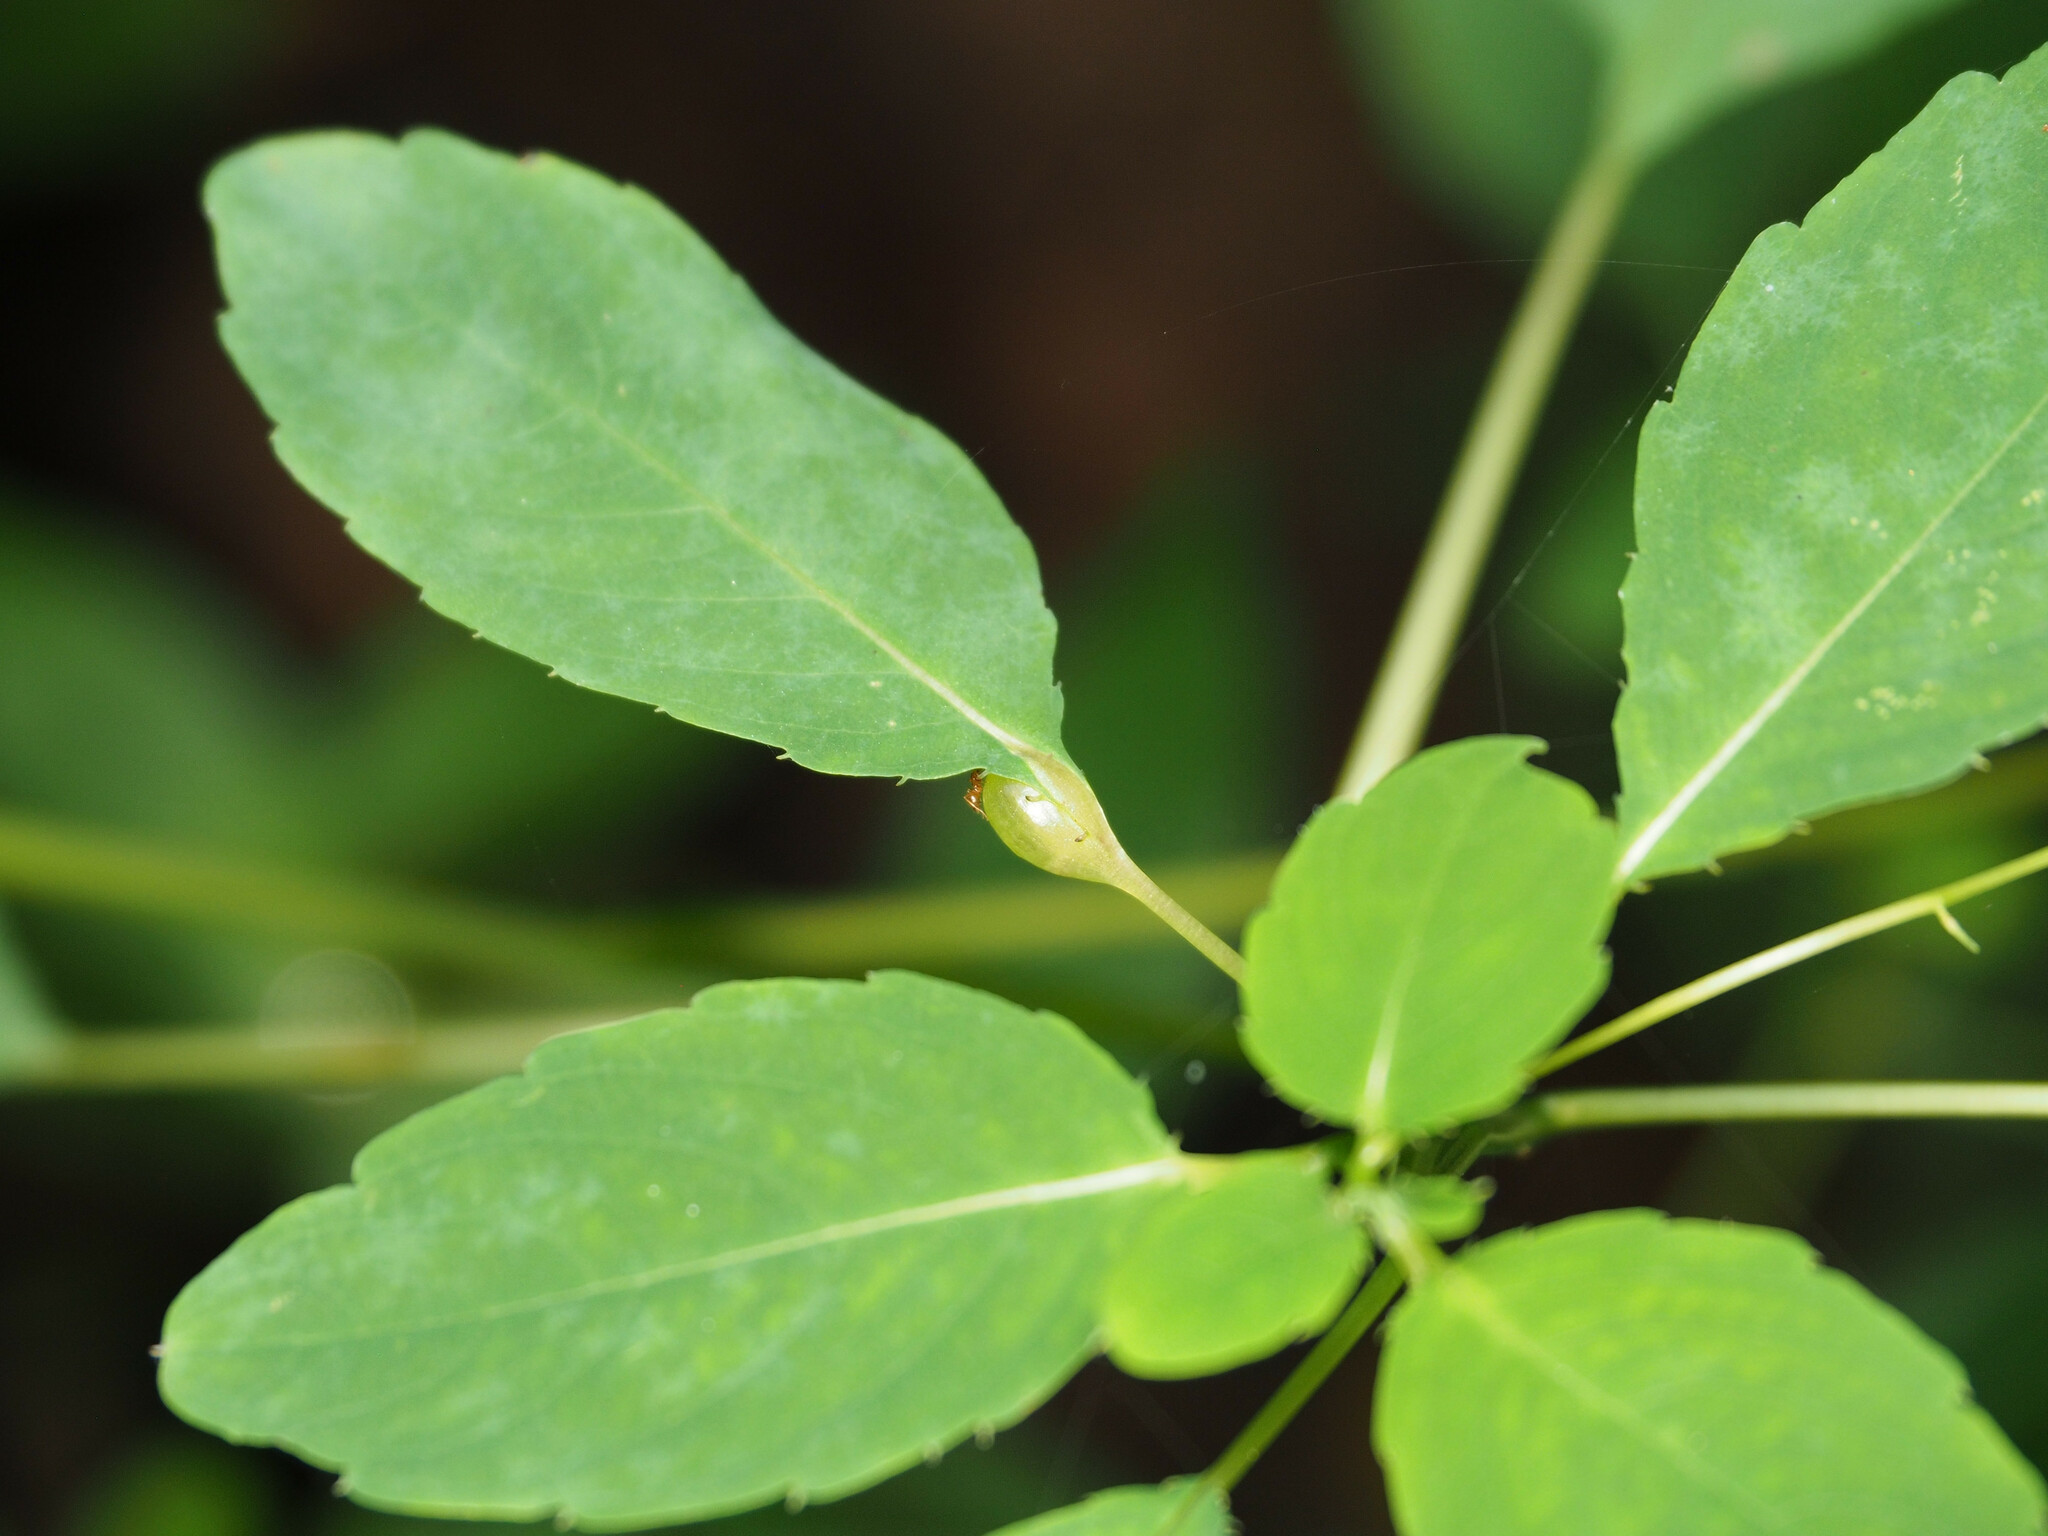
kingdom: Animalia
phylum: Arthropoda
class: Insecta
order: Diptera
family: Cecidomyiidae
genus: Neolasioptera
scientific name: Neolasioptera impatientifolia
